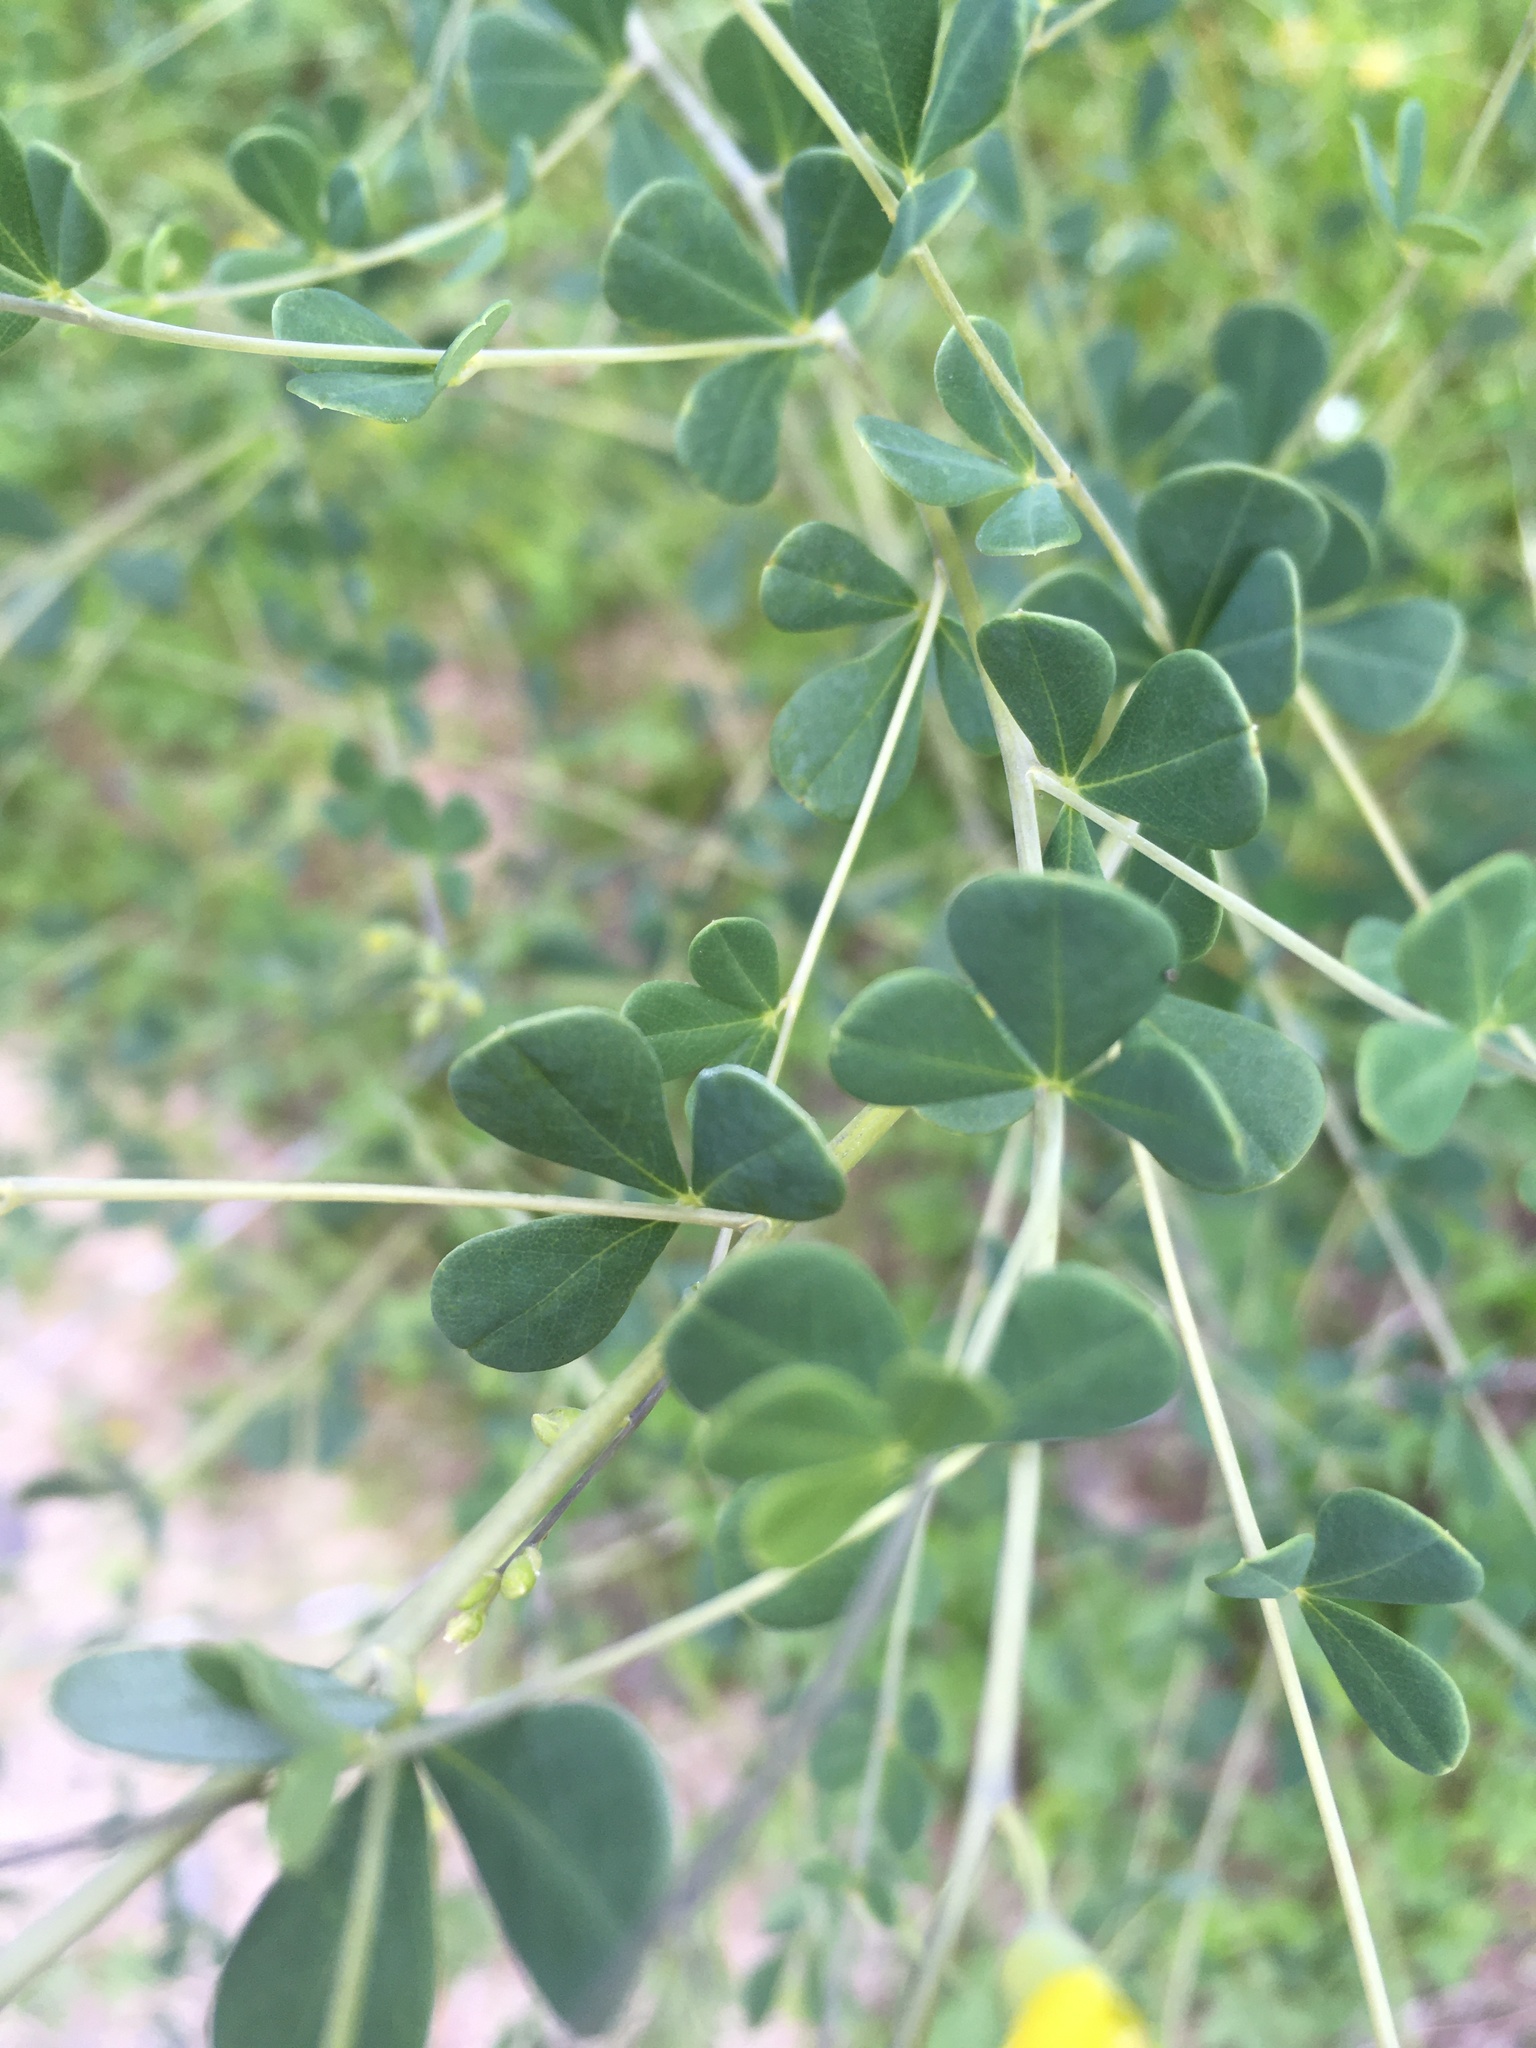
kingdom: Plantae
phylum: Tracheophyta
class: Magnoliopsida
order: Fabales
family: Fabaceae
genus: Baptisia
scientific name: Baptisia tinctoria
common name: Wild indigo
